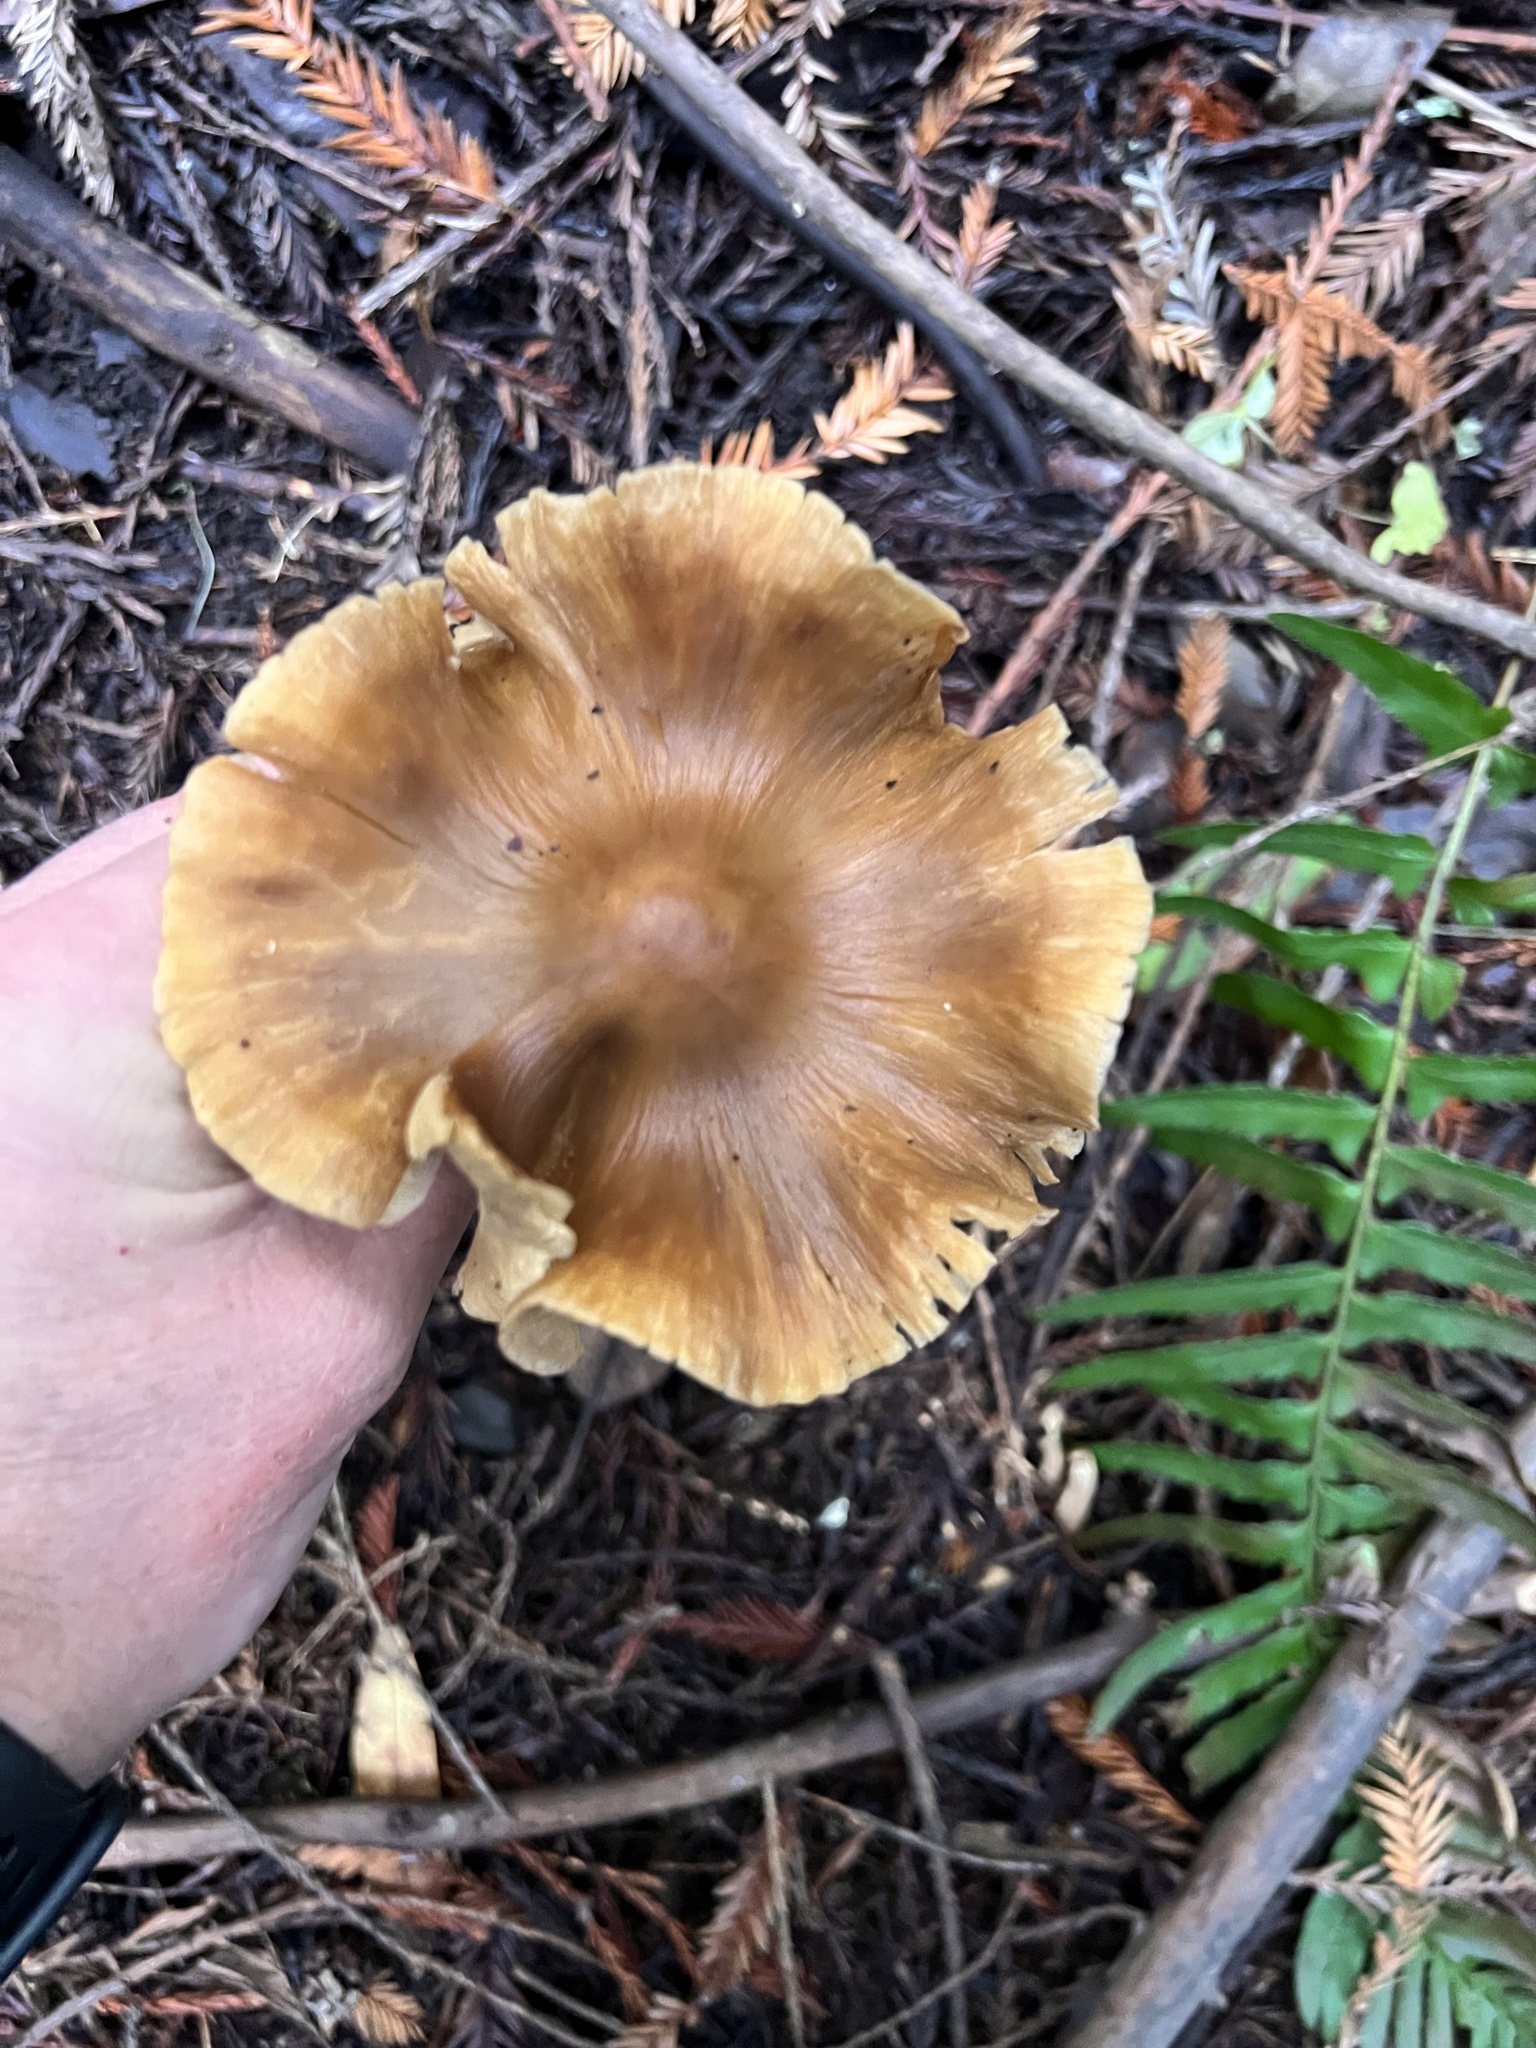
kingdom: Fungi
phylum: Basidiomycota
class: Agaricomycetes
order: Agaricales
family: Tricholomataceae
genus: Caulorhiza
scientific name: Caulorhiza umbonata
